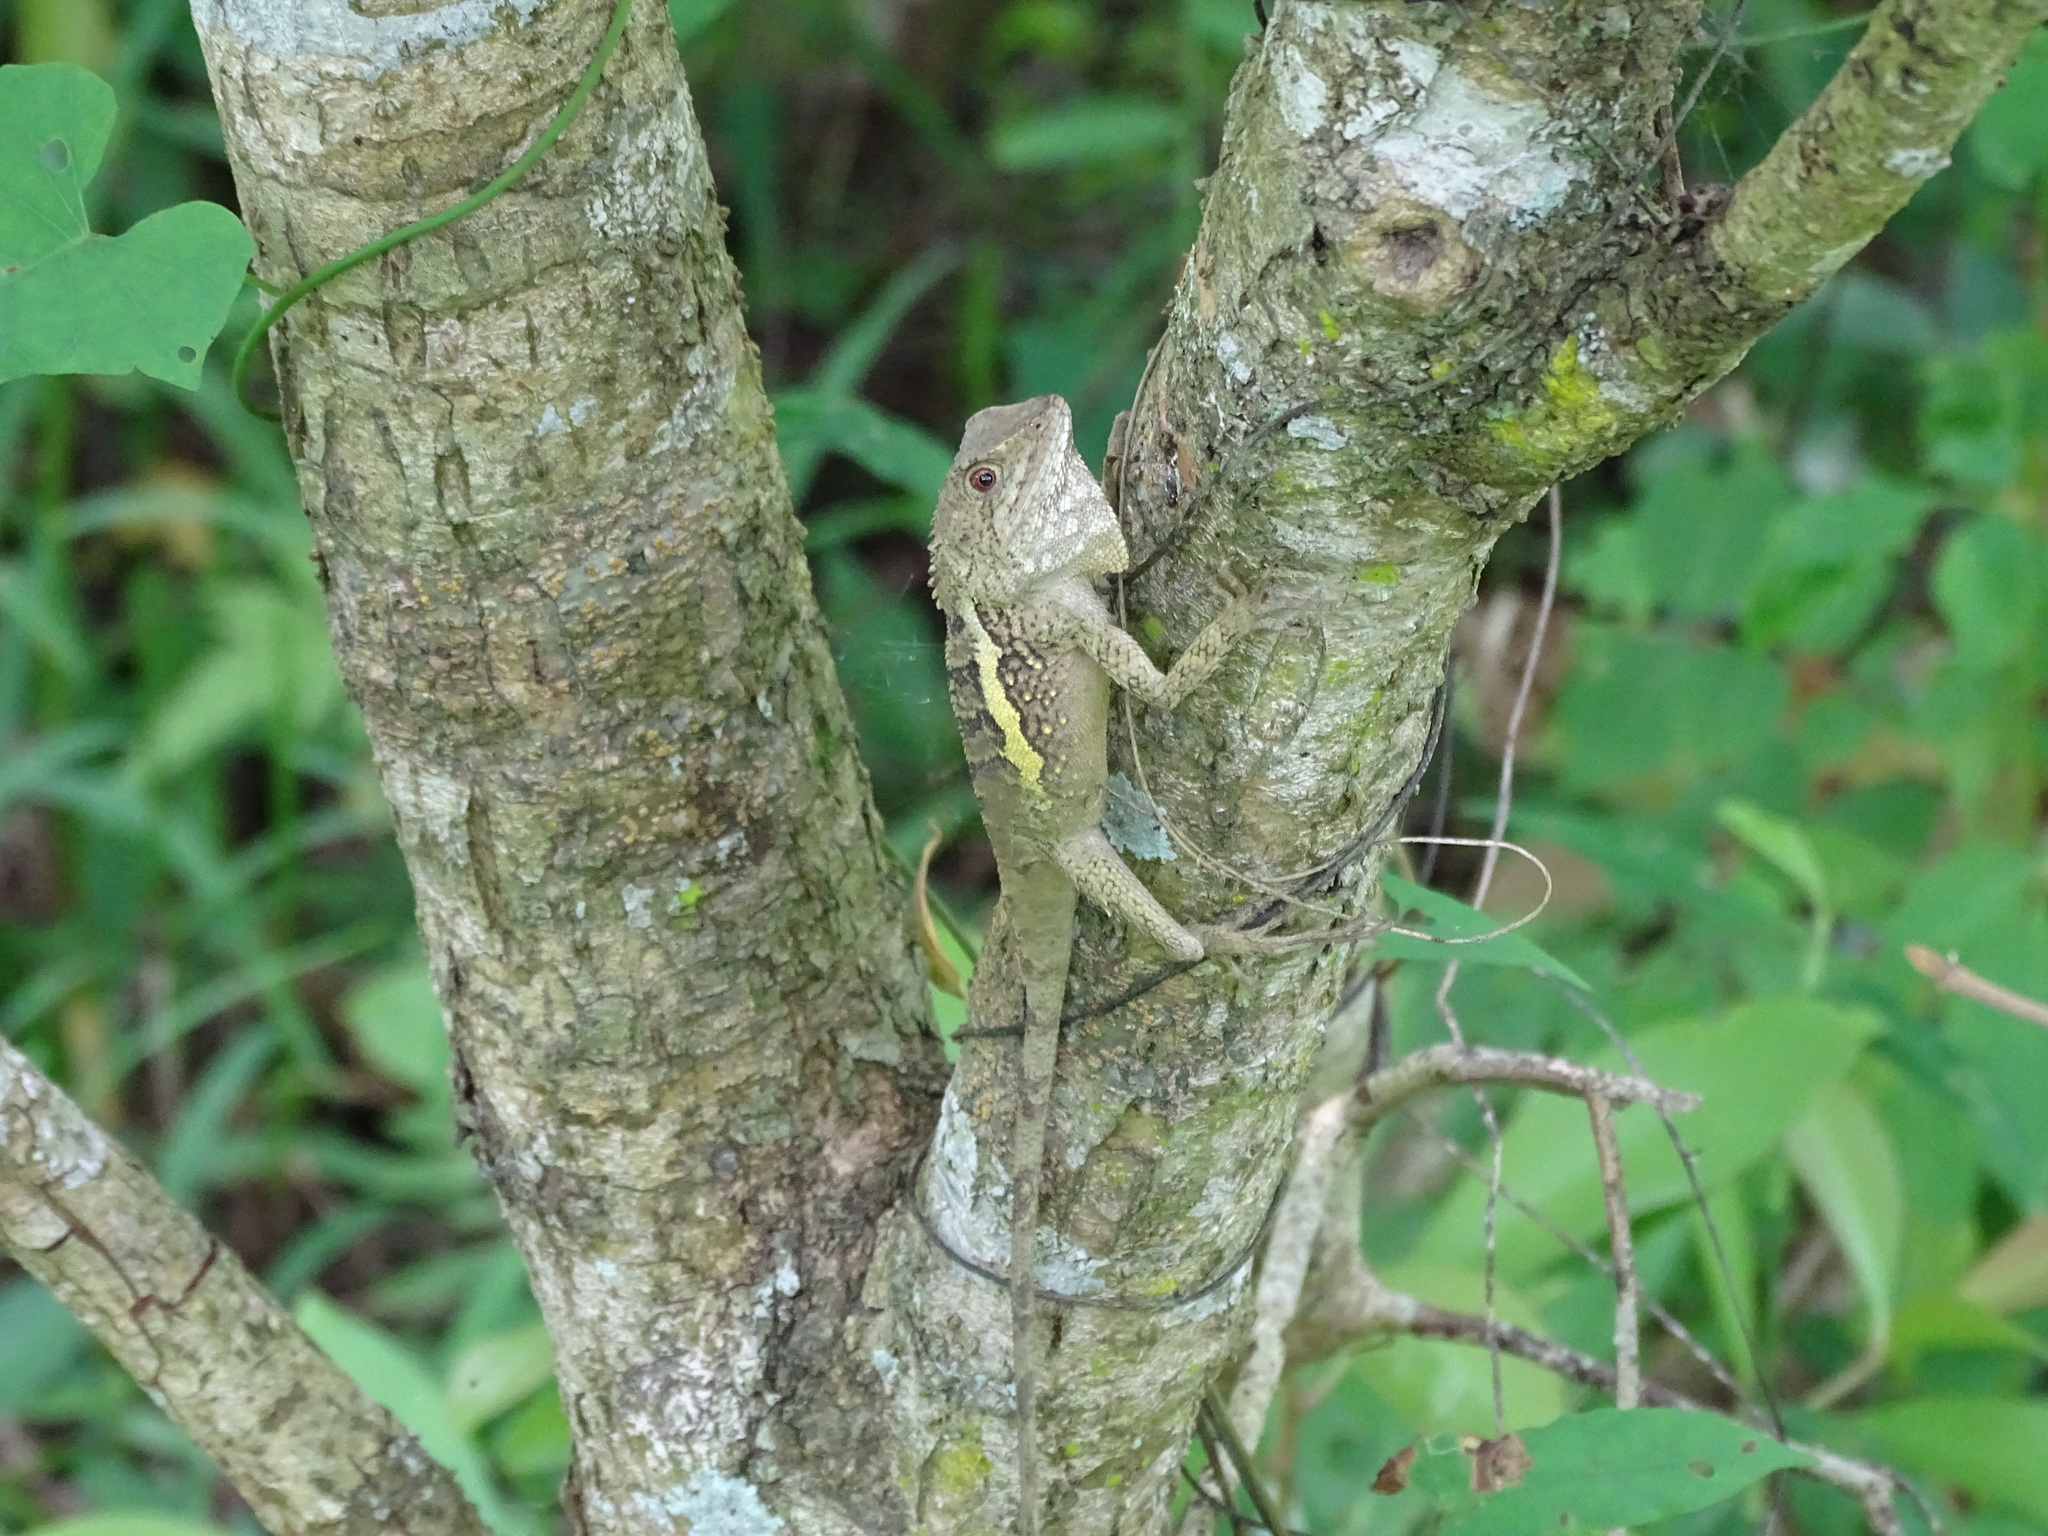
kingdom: Animalia
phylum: Chordata
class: Squamata
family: Agamidae
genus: Diploderma
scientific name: Diploderma swinhonis
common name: Taiwan japalure
